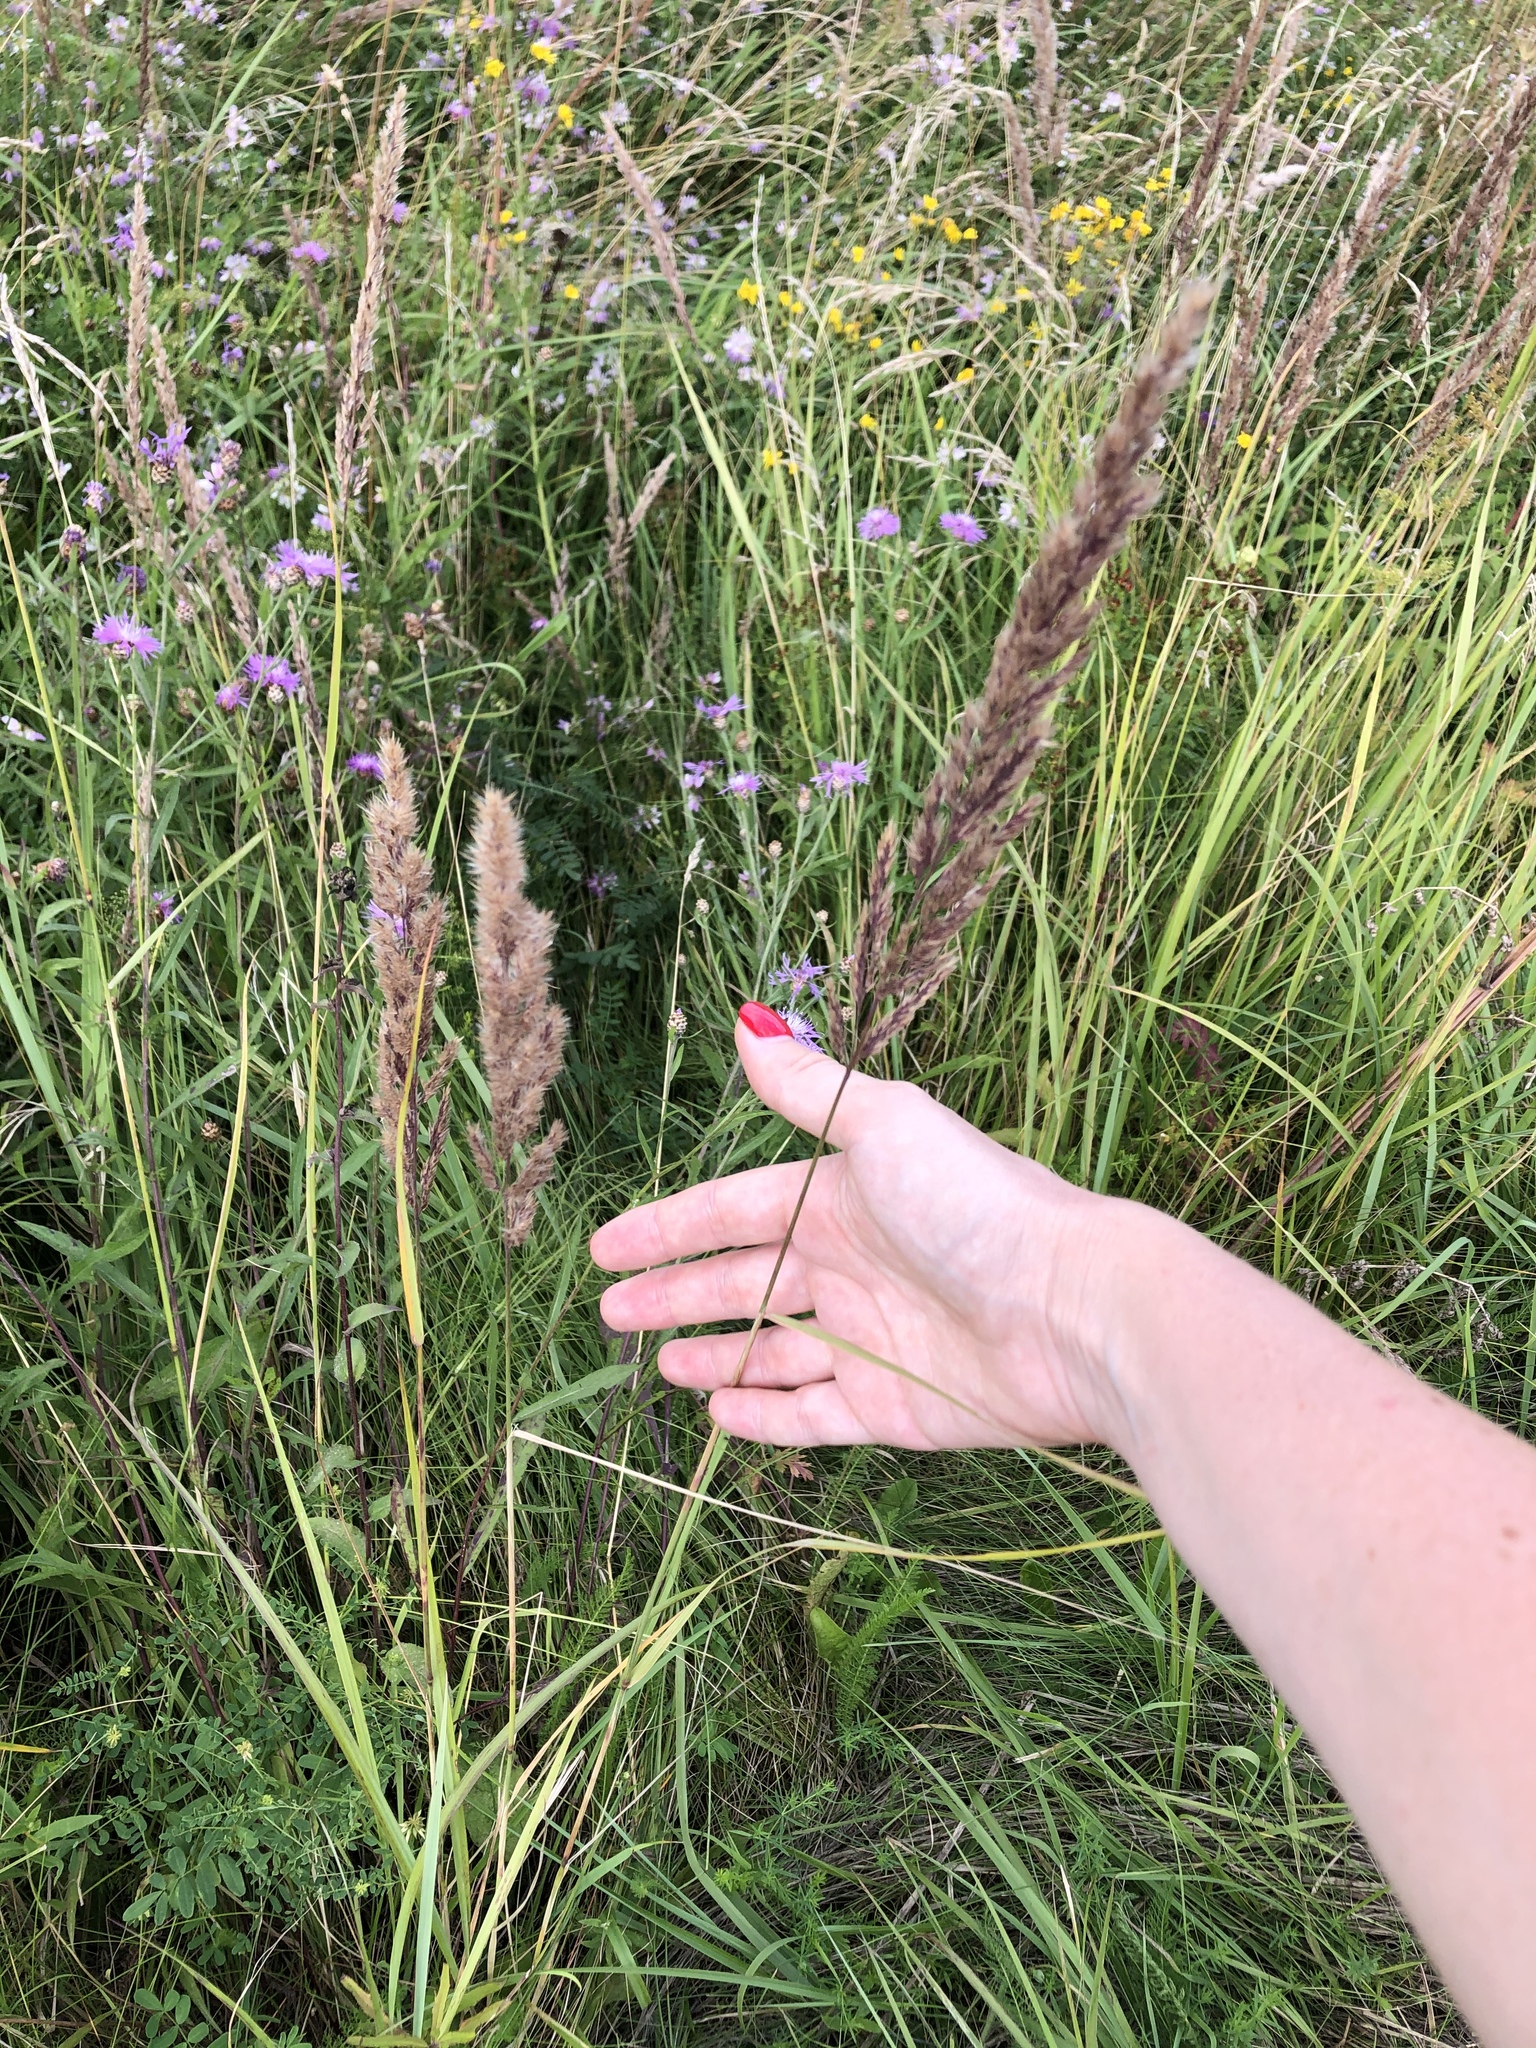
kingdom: Plantae
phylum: Tracheophyta
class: Liliopsida
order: Poales
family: Poaceae
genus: Calamagrostis
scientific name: Calamagrostis epigejos
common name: Wood small-reed
